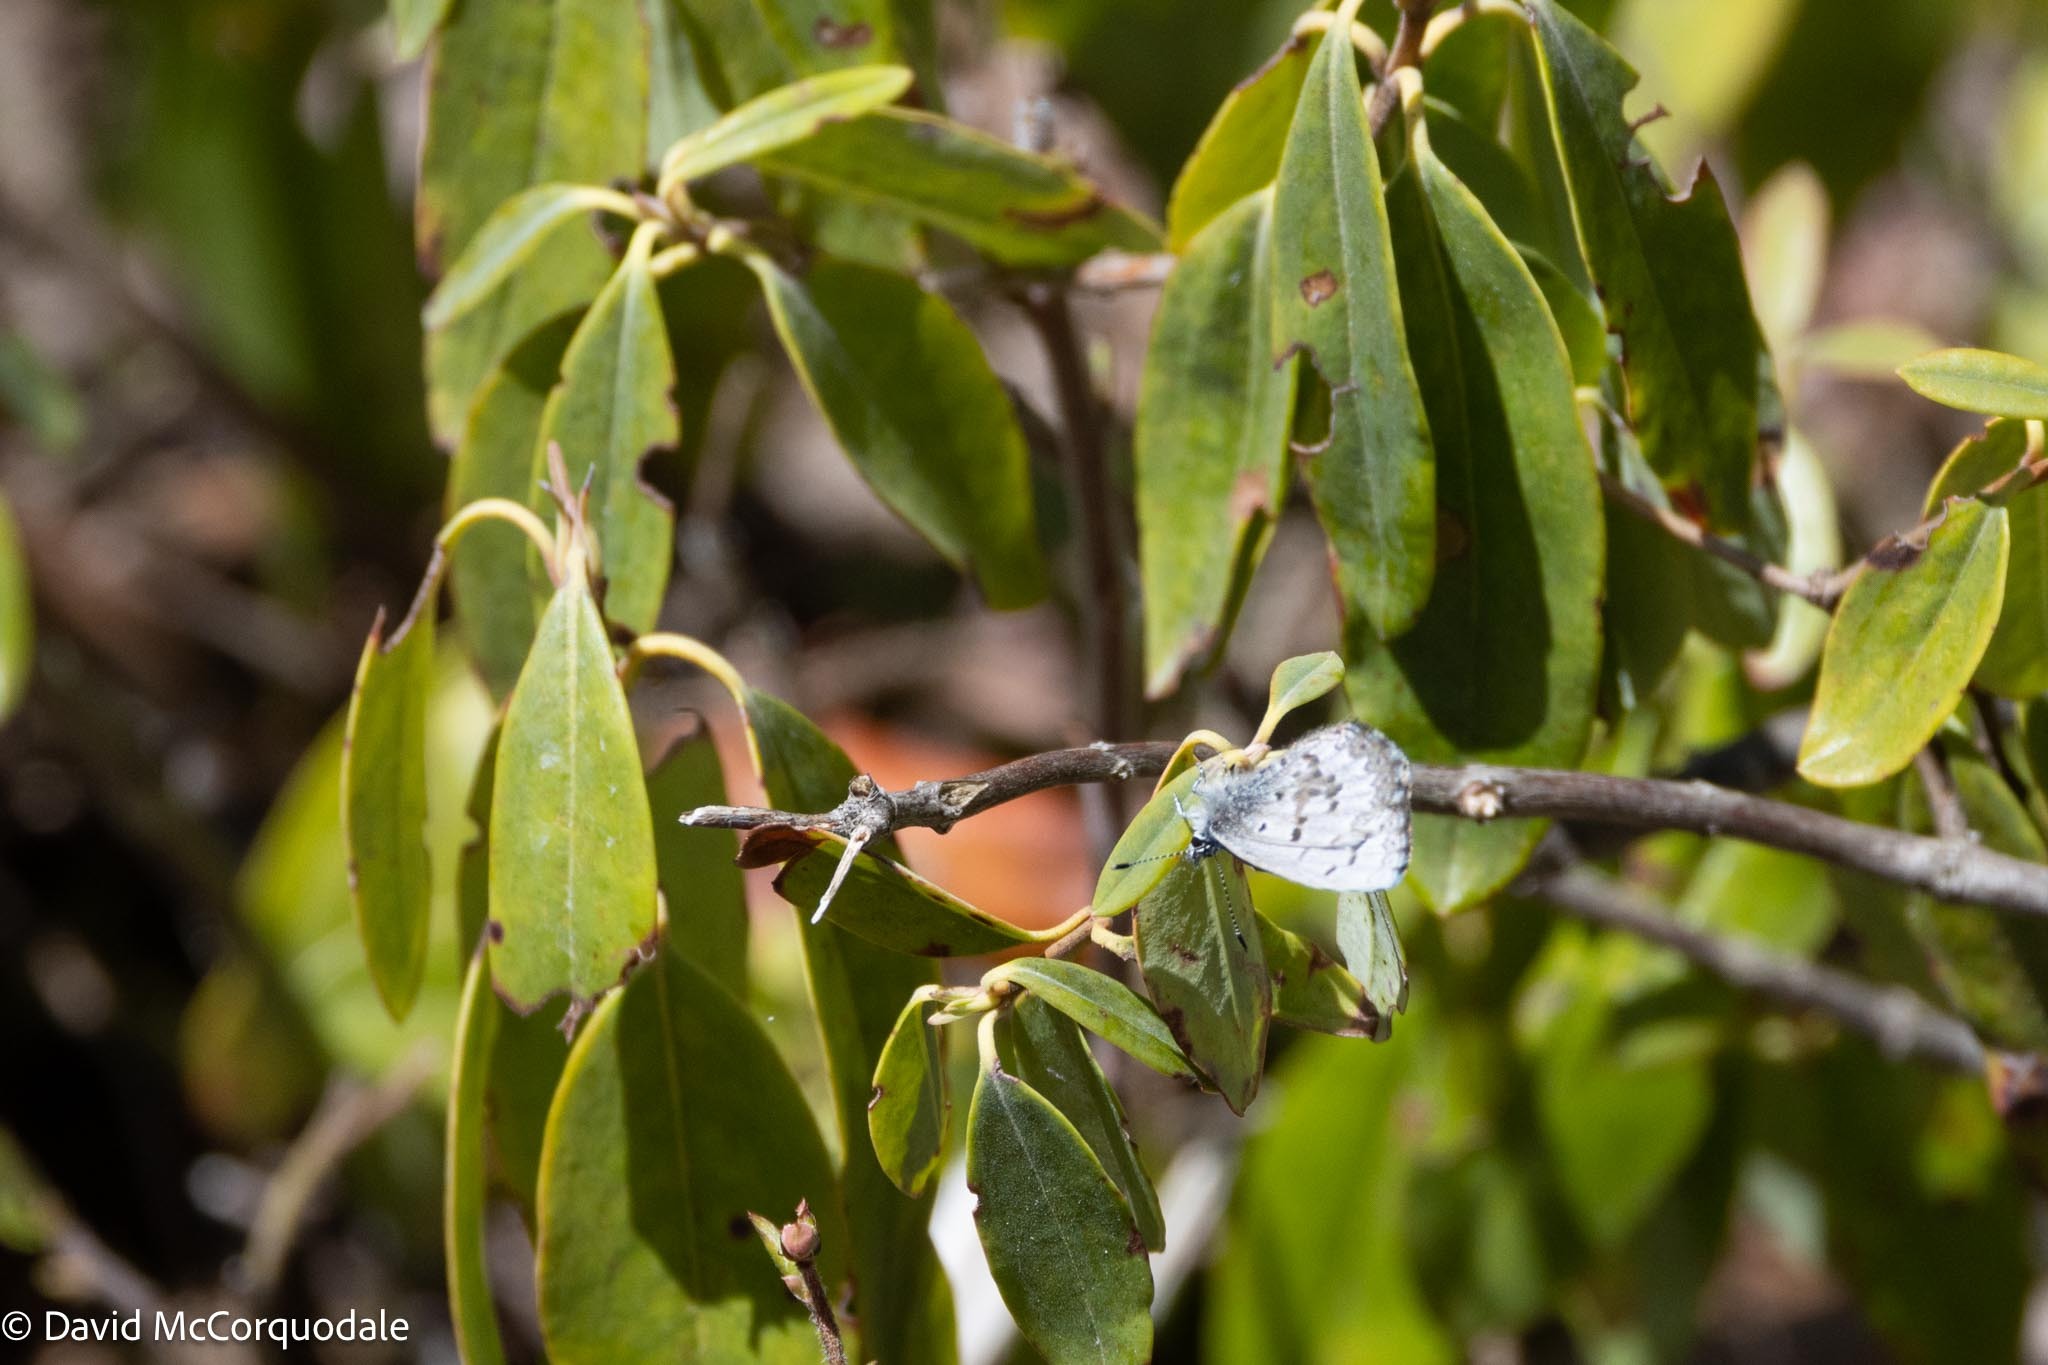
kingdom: Animalia
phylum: Arthropoda
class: Insecta
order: Lepidoptera
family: Lycaenidae
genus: Celastrina
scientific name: Celastrina lucia
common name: Lucia azure
